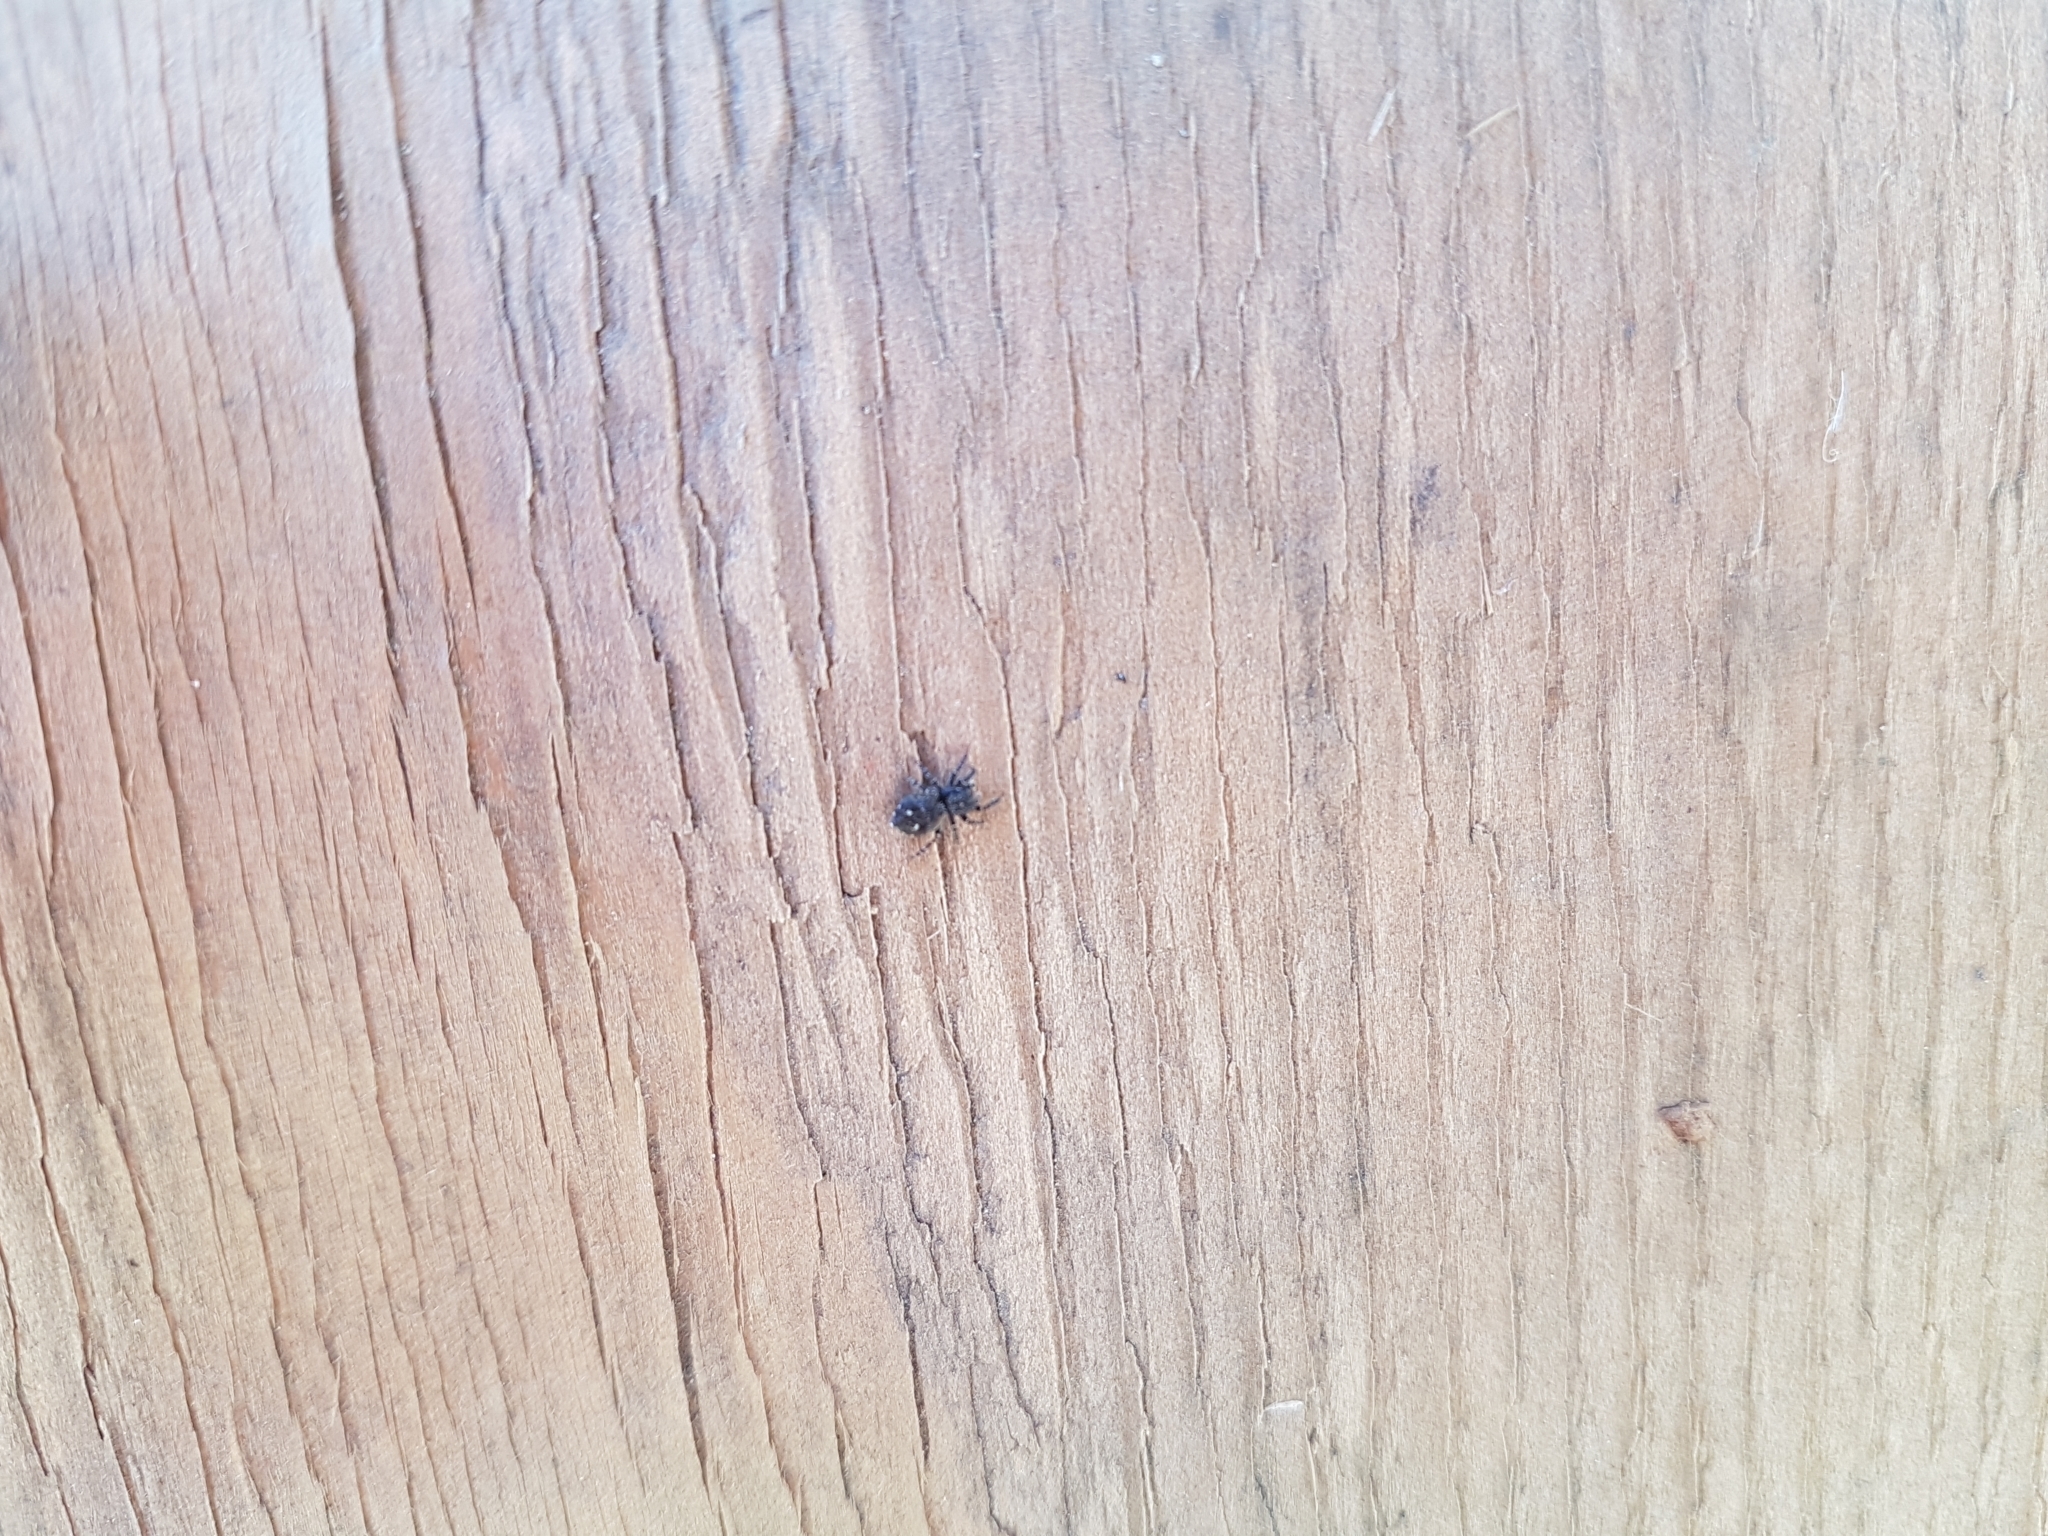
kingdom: Animalia
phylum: Arthropoda
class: Arachnida
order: Araneae
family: Salticidae
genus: Attulus
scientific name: Attulus pubescens
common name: Jumping spider
